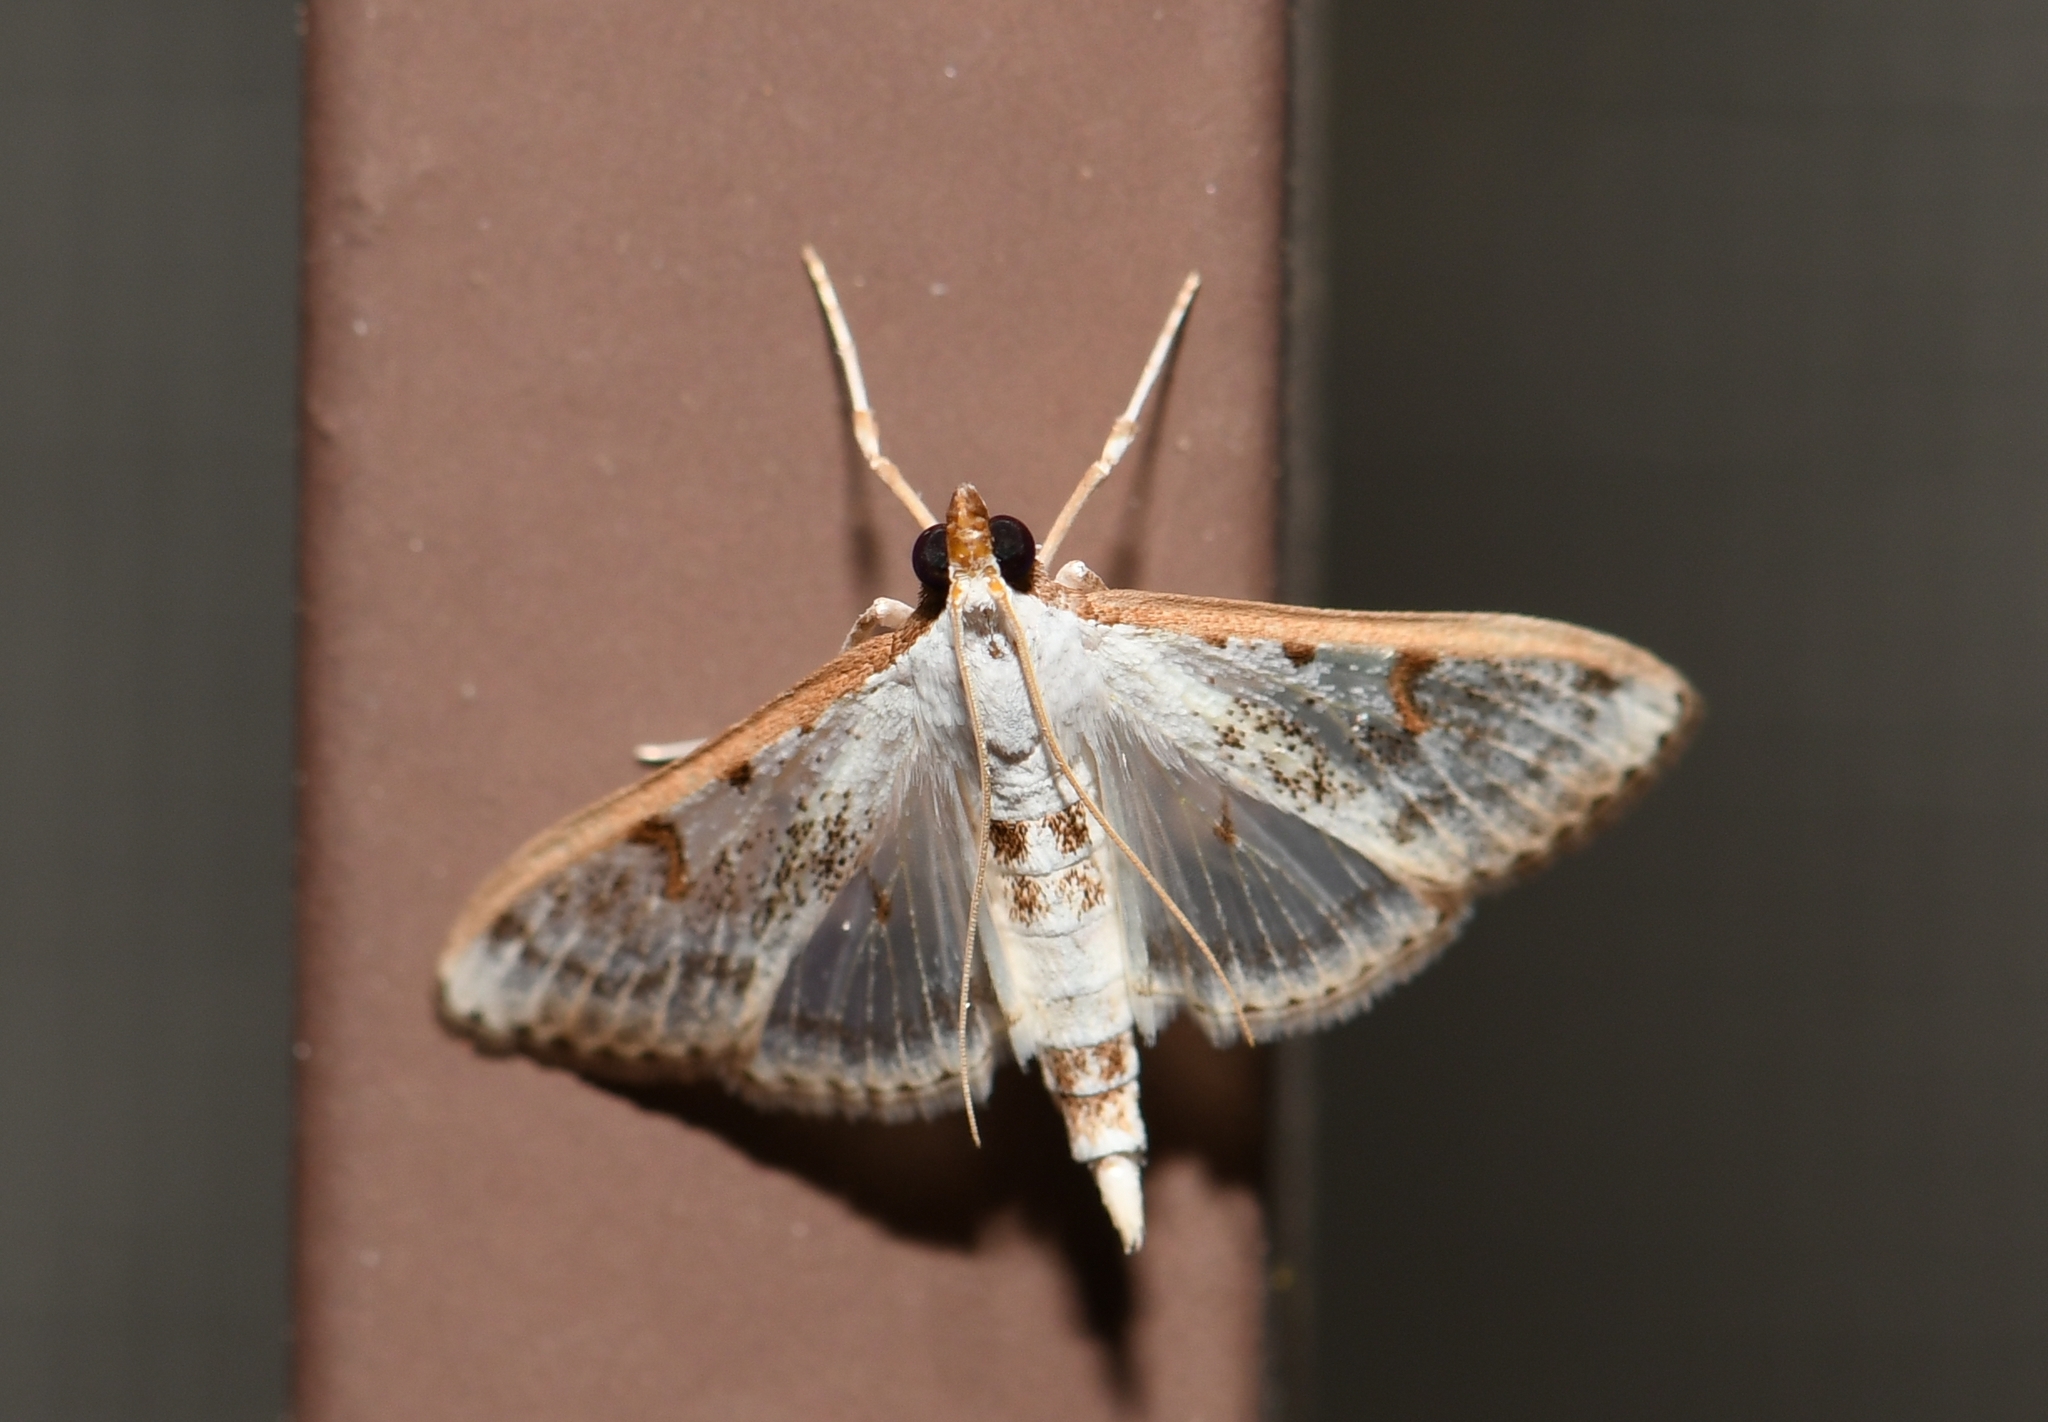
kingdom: Animalia
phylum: Arthropoda
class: Insecta
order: Lepidoptera
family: Crambidae
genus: Palpita
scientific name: Palpita gracilalis
